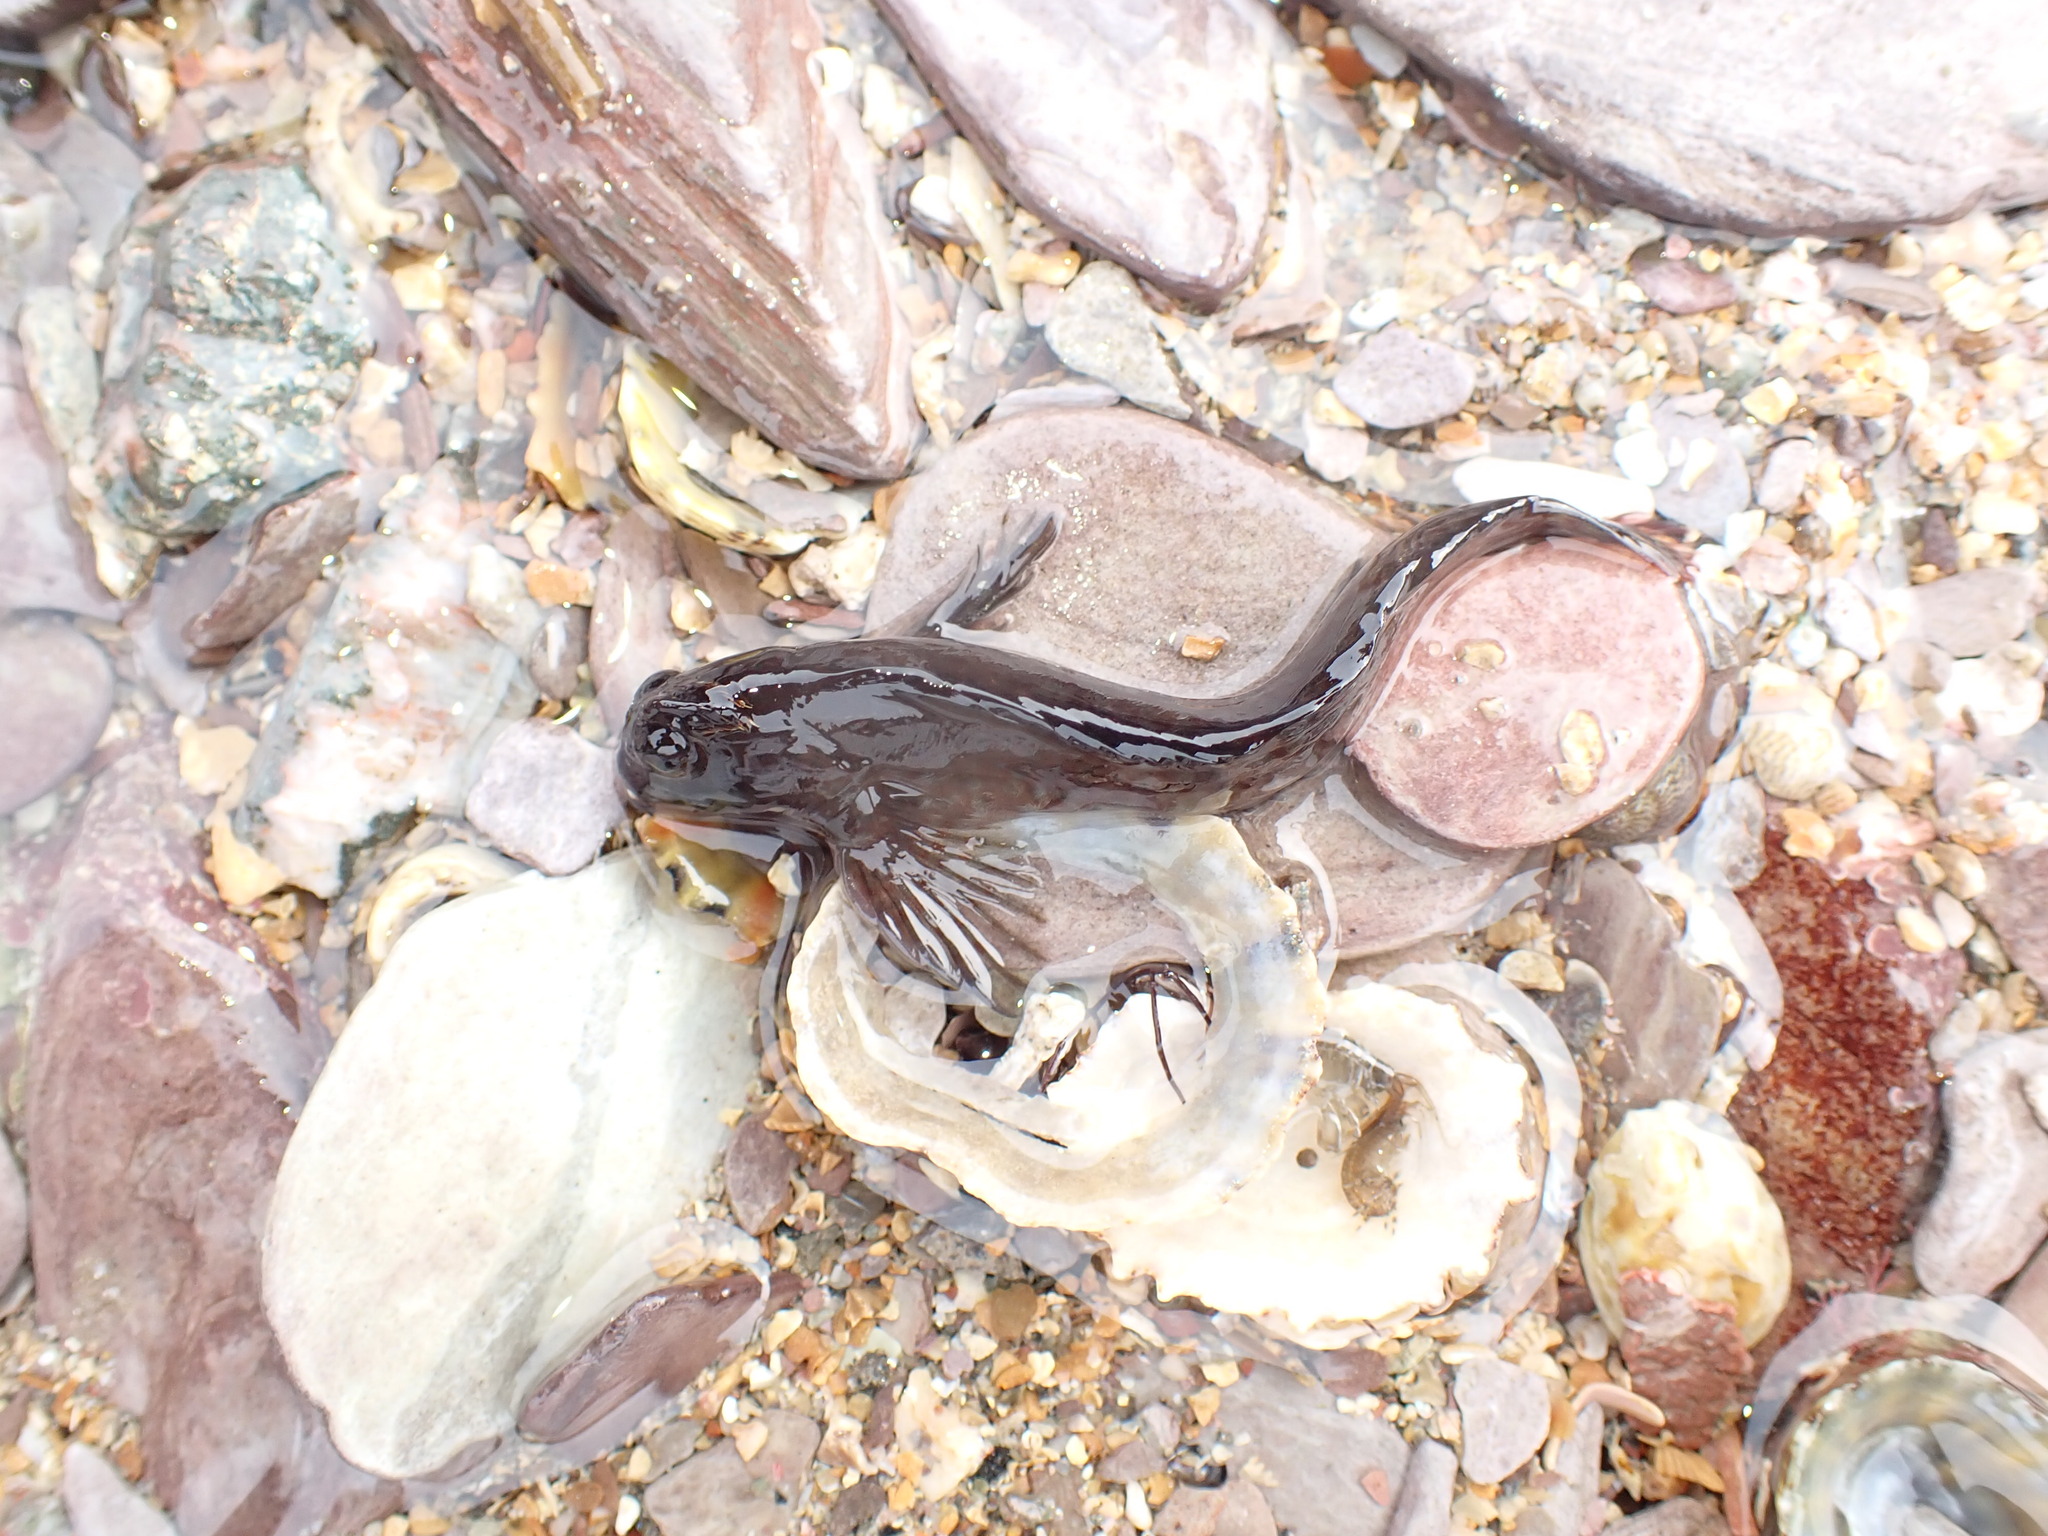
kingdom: Animalia
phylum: Chordata
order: Perciformes
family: Blenniidae
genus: Coryphoblennius
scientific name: Coryphoblennius galerita
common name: Montagu's blenny
